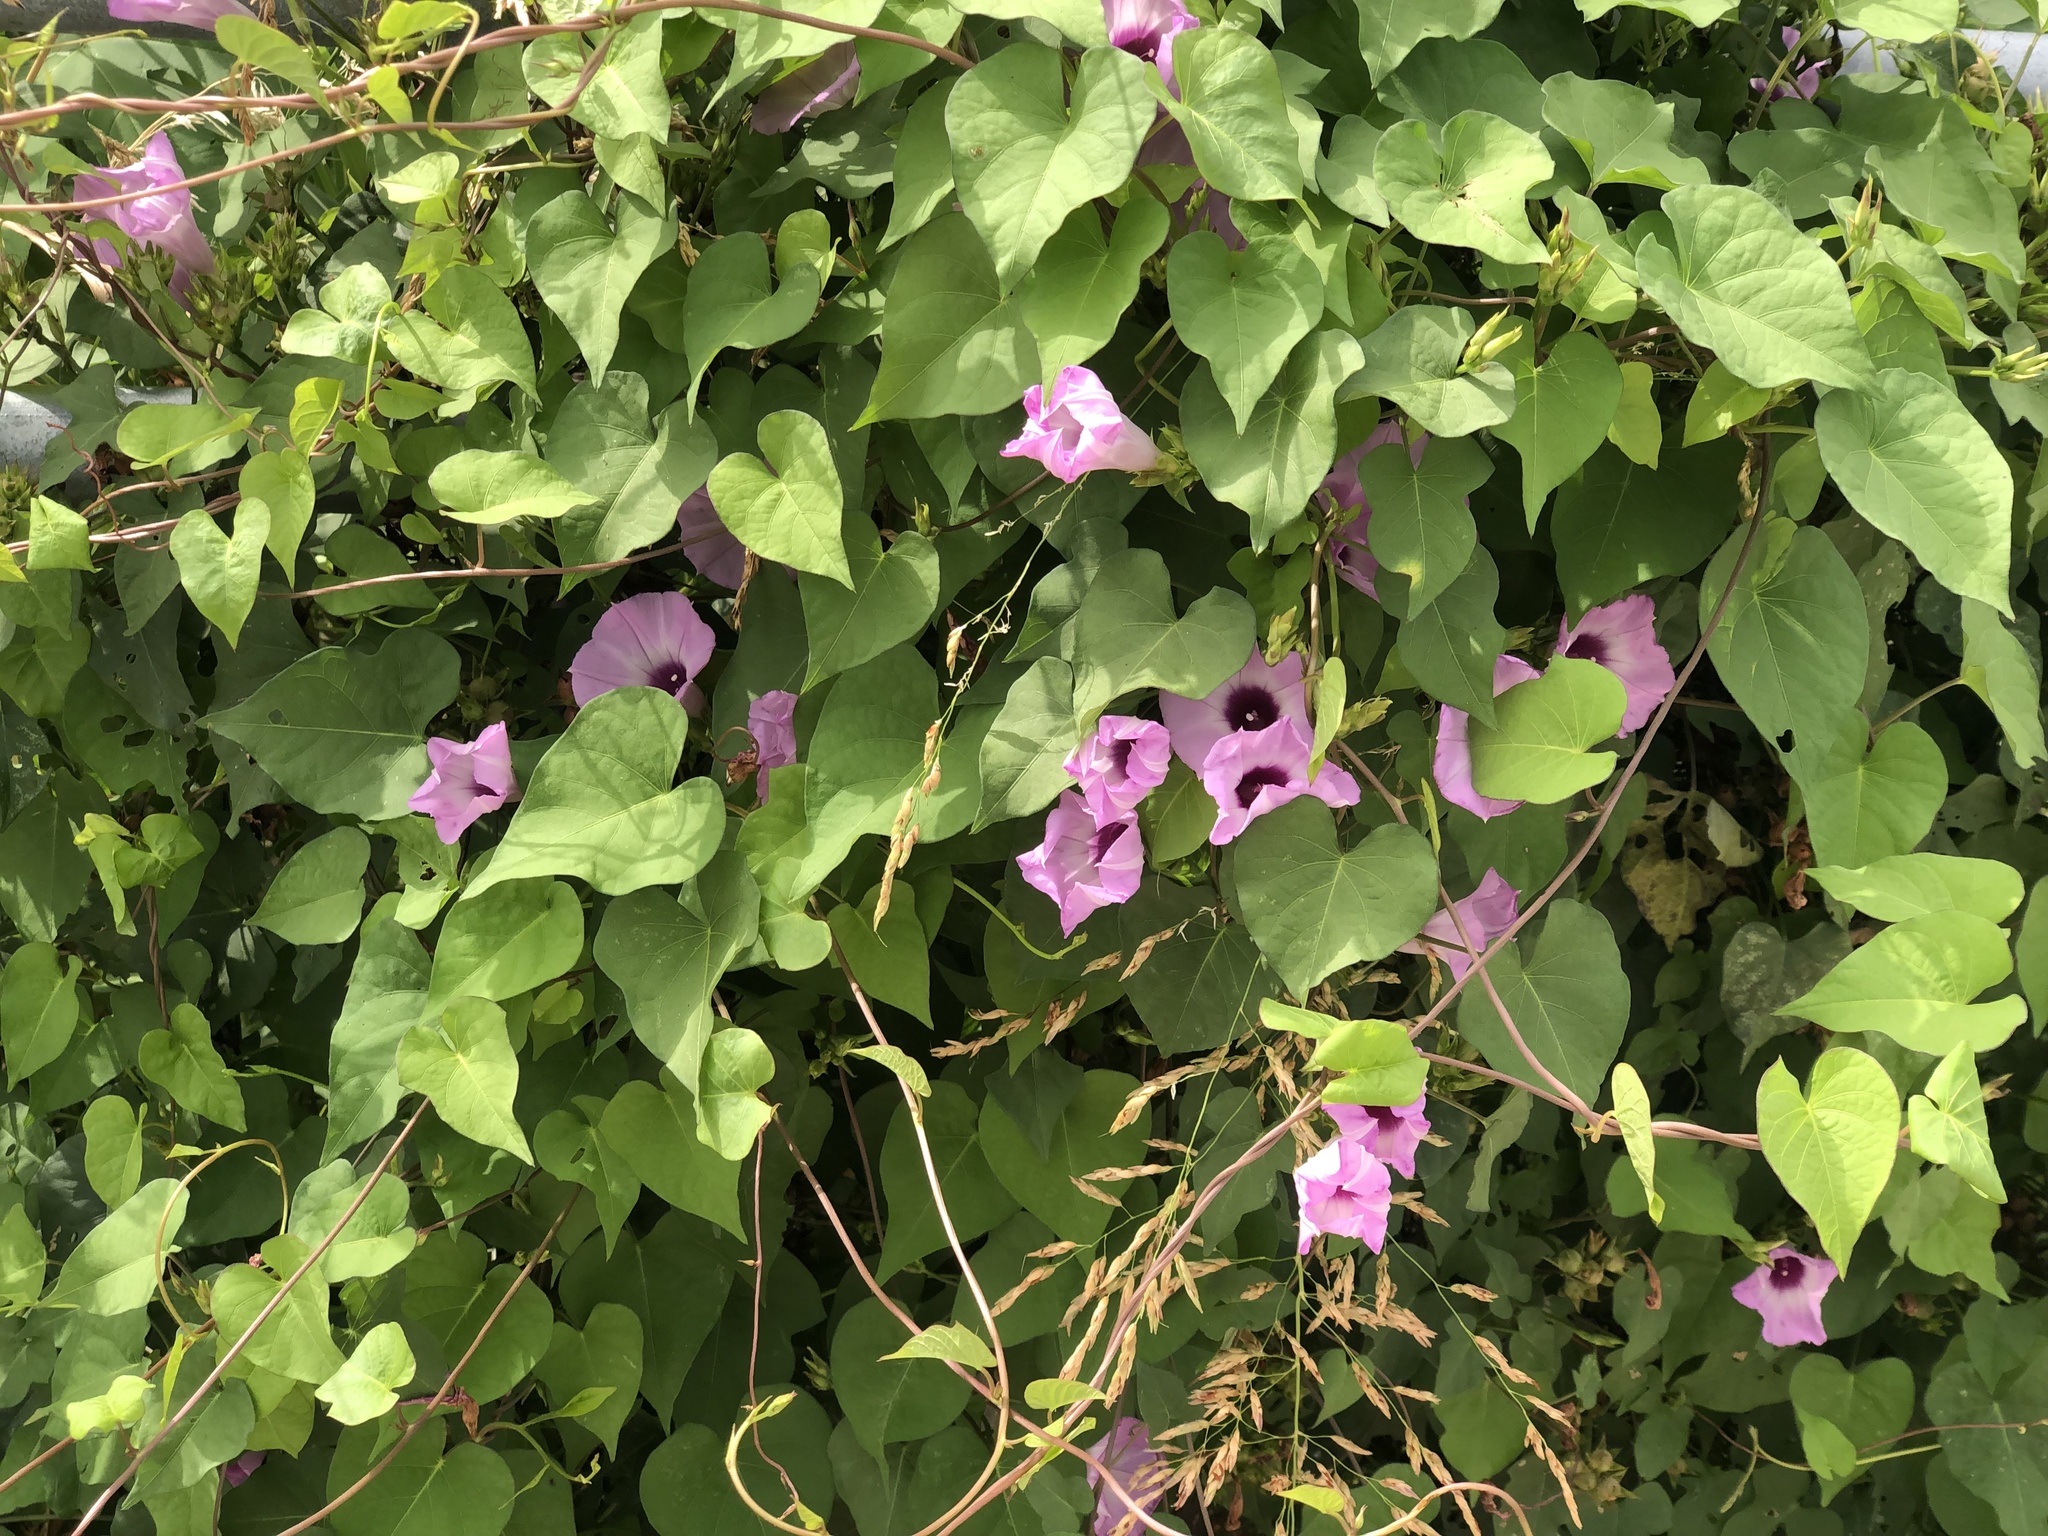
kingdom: Plantae
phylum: Tracheophyta
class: Magnoliopsida
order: Solanales
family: Convolvulaceae
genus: Ipomoea
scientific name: Ipomoea cordatotriloba
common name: Cotton morning glory
